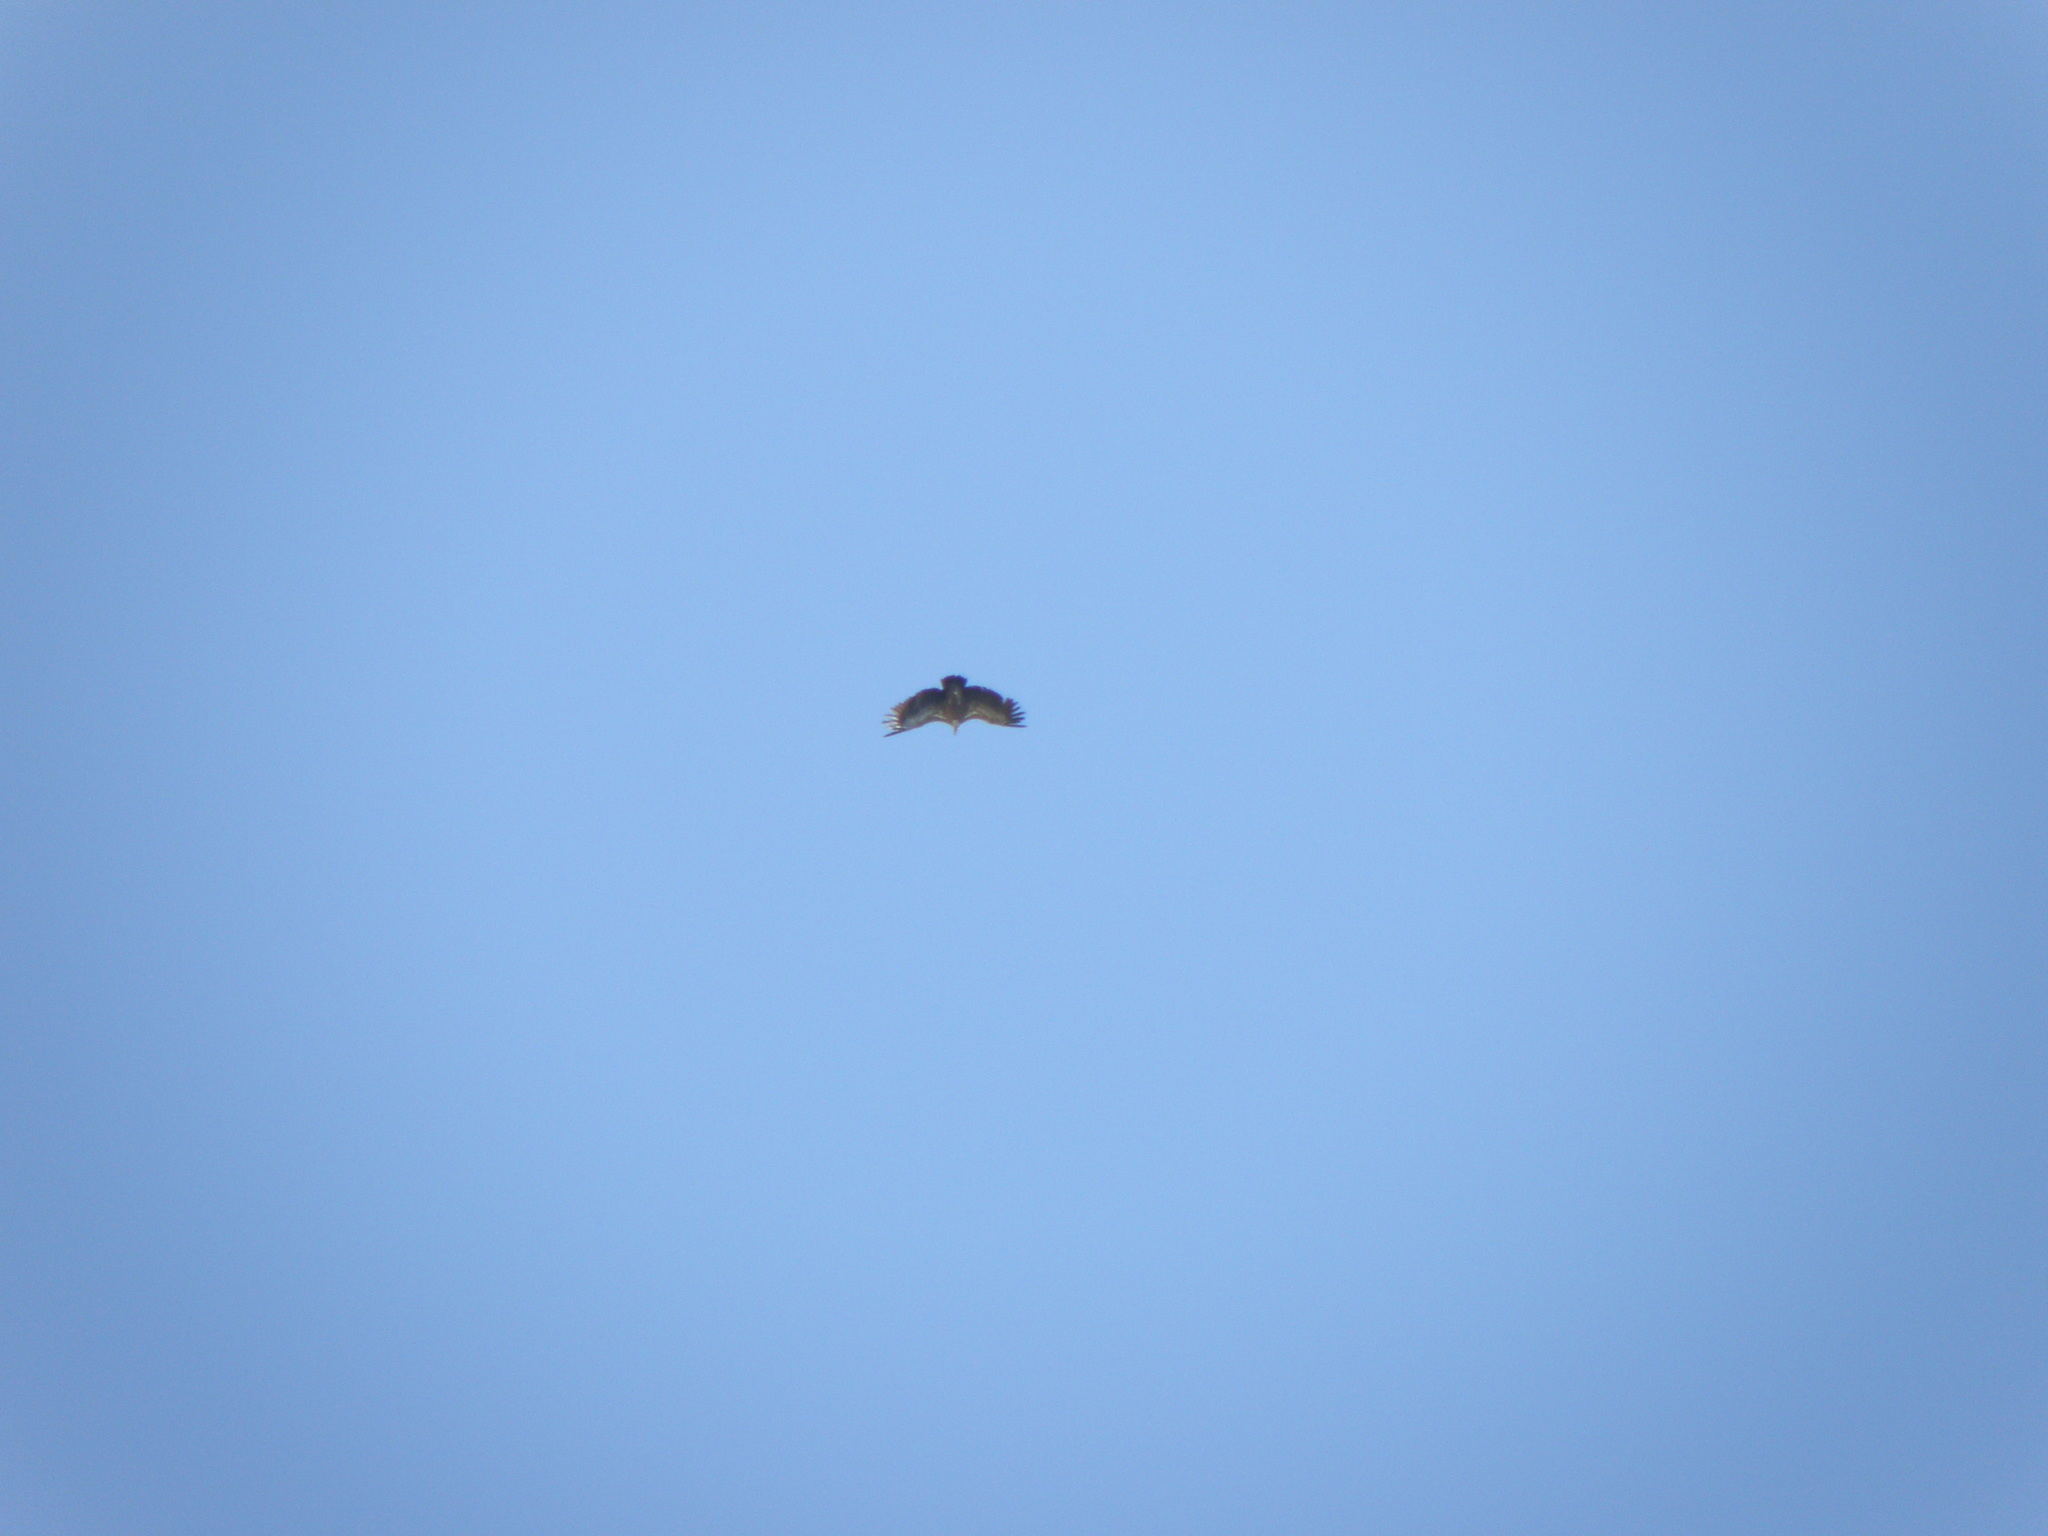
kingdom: Animalia
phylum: Chordata
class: Aves
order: Accipitriformes
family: Accipitridae
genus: Gyps
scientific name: Gyps fulvus
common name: Griffon vulture
